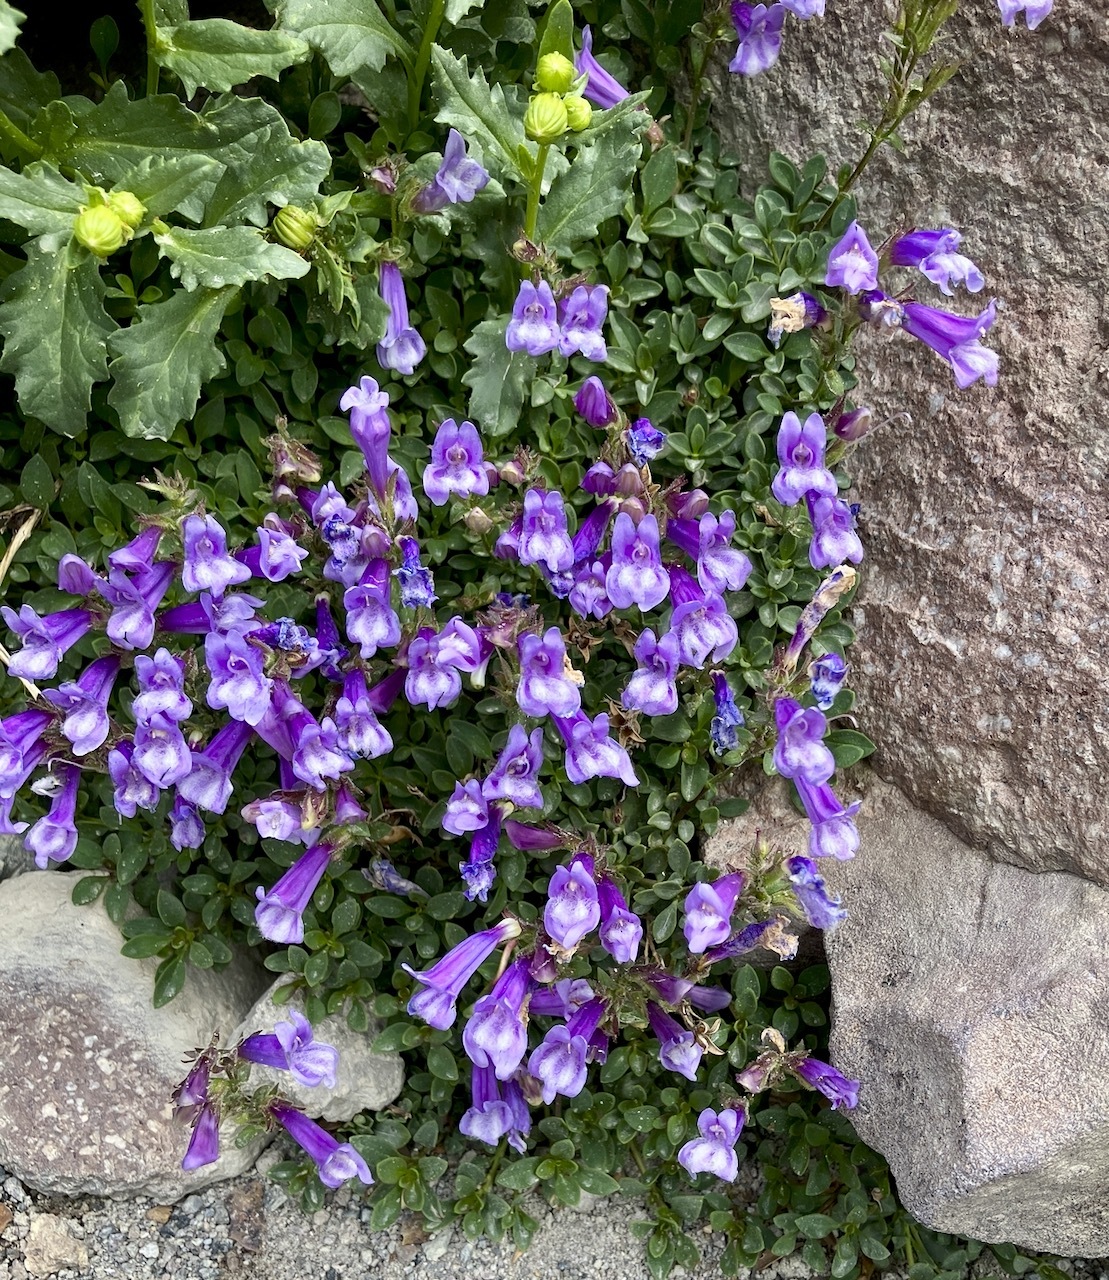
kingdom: Plantae
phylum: Tracheophyta
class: Magnoliopsida
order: Lamiales
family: Plantaginaceae
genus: Penstemon
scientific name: Penstemon davidsonii
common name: Davidson's penstemon
